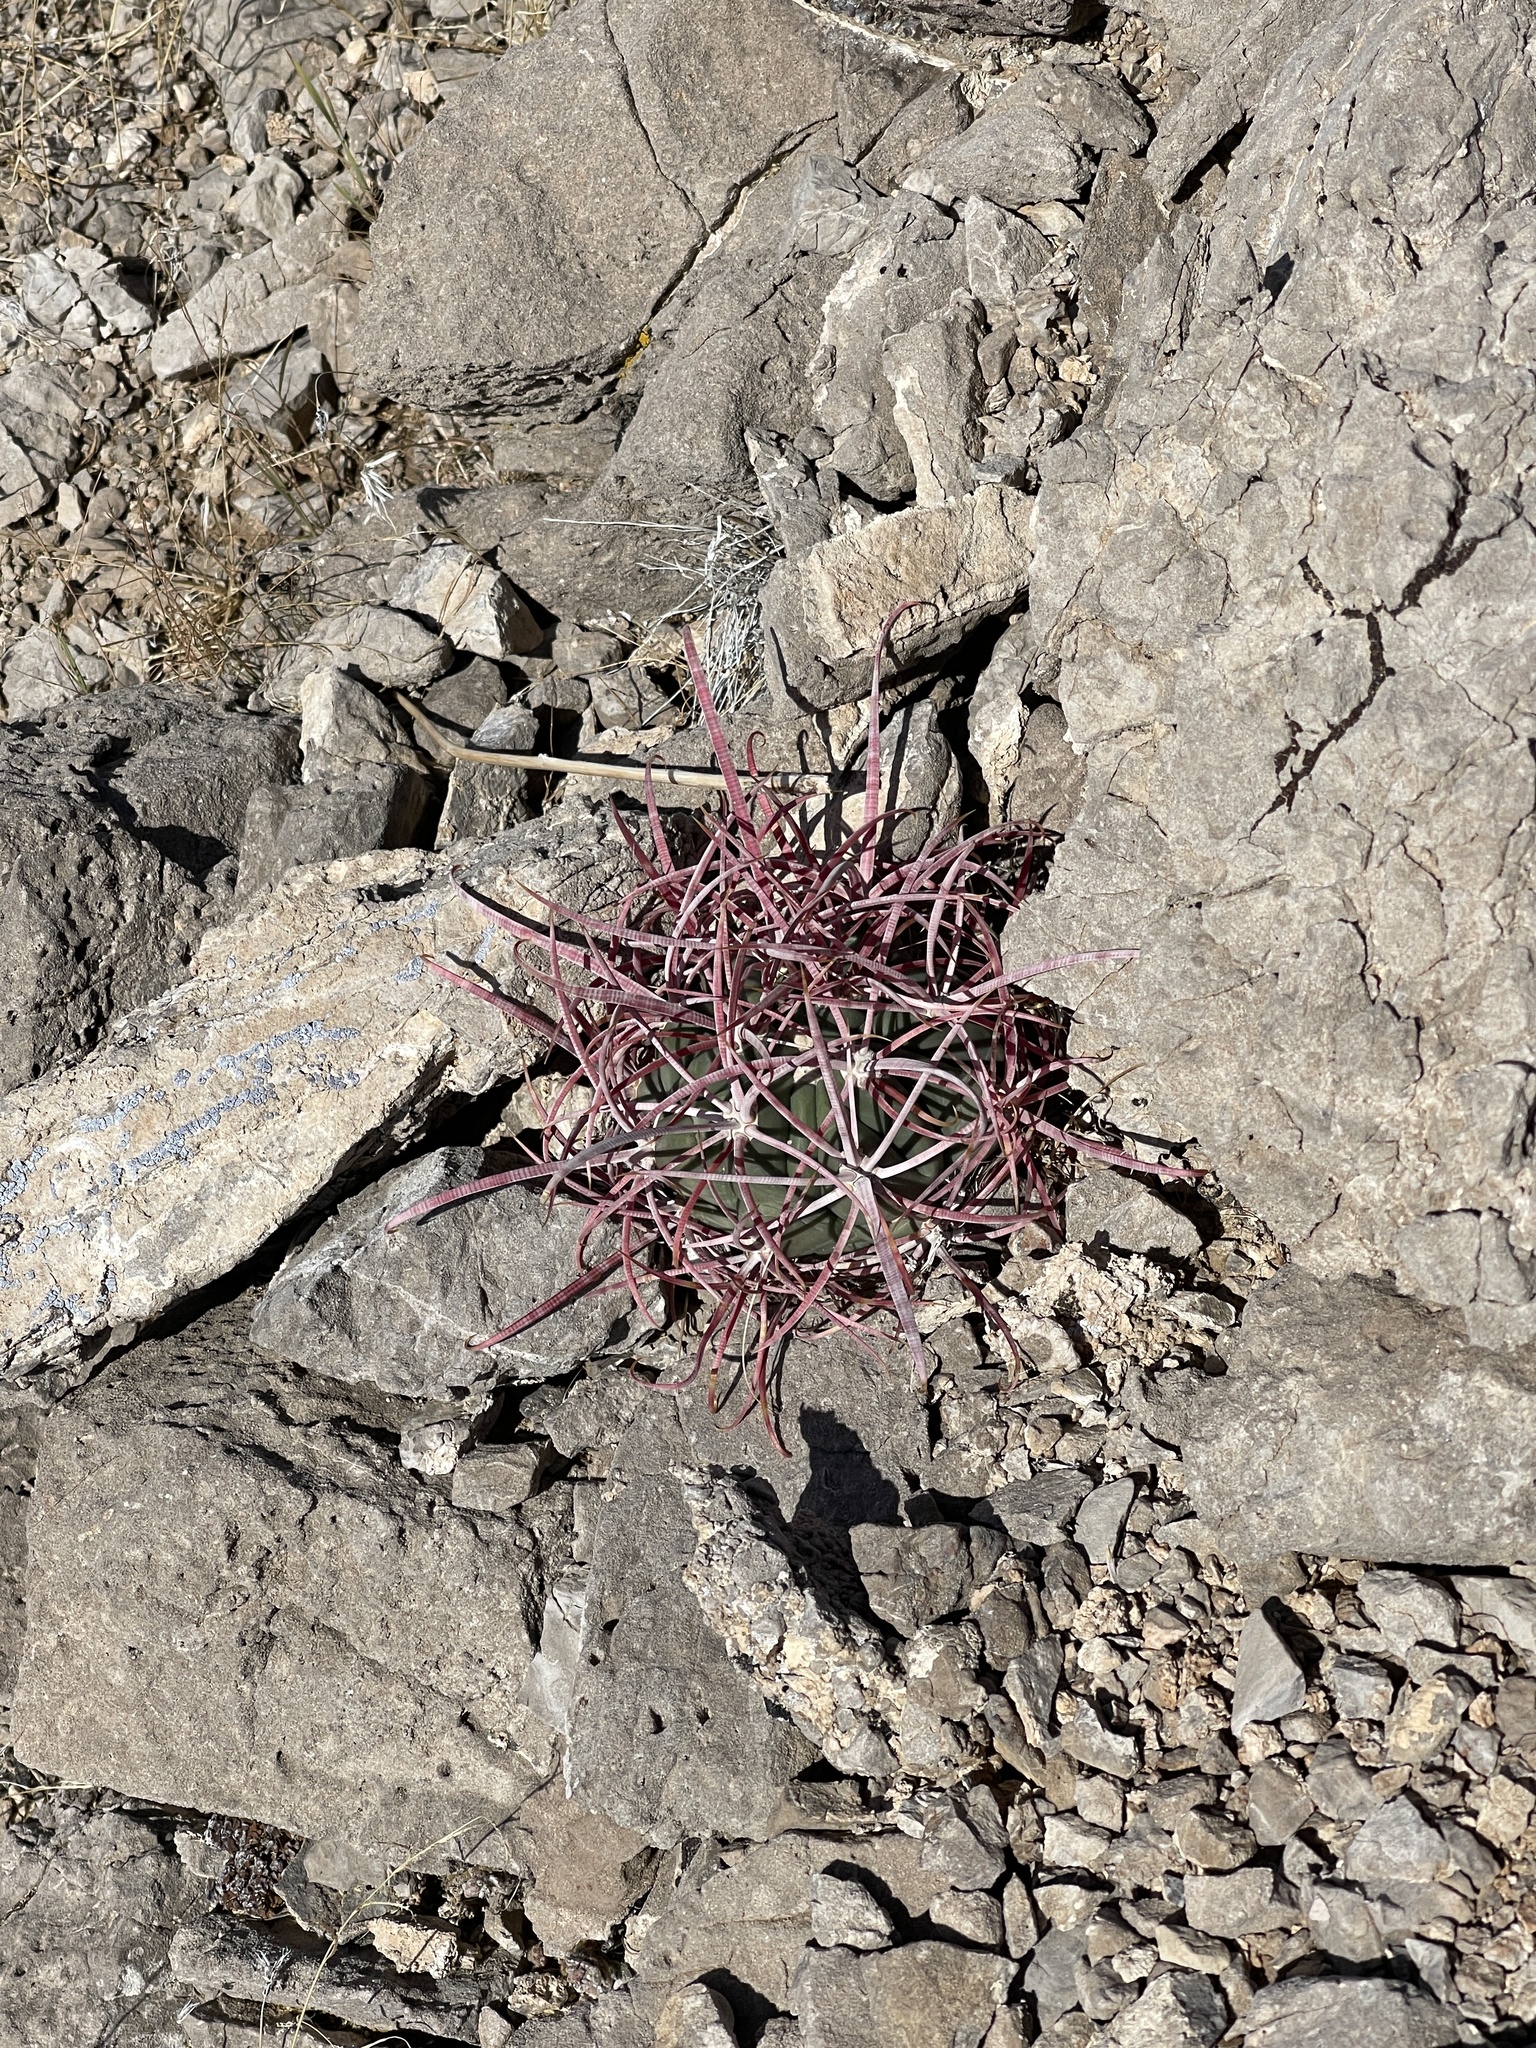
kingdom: Plantae
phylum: Tracheophyta
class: Magnoliopsida
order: Caryophyllales
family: Cactaceae
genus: Echinocactus
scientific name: Echinocactus polycephalus
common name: Cottontop cactus
